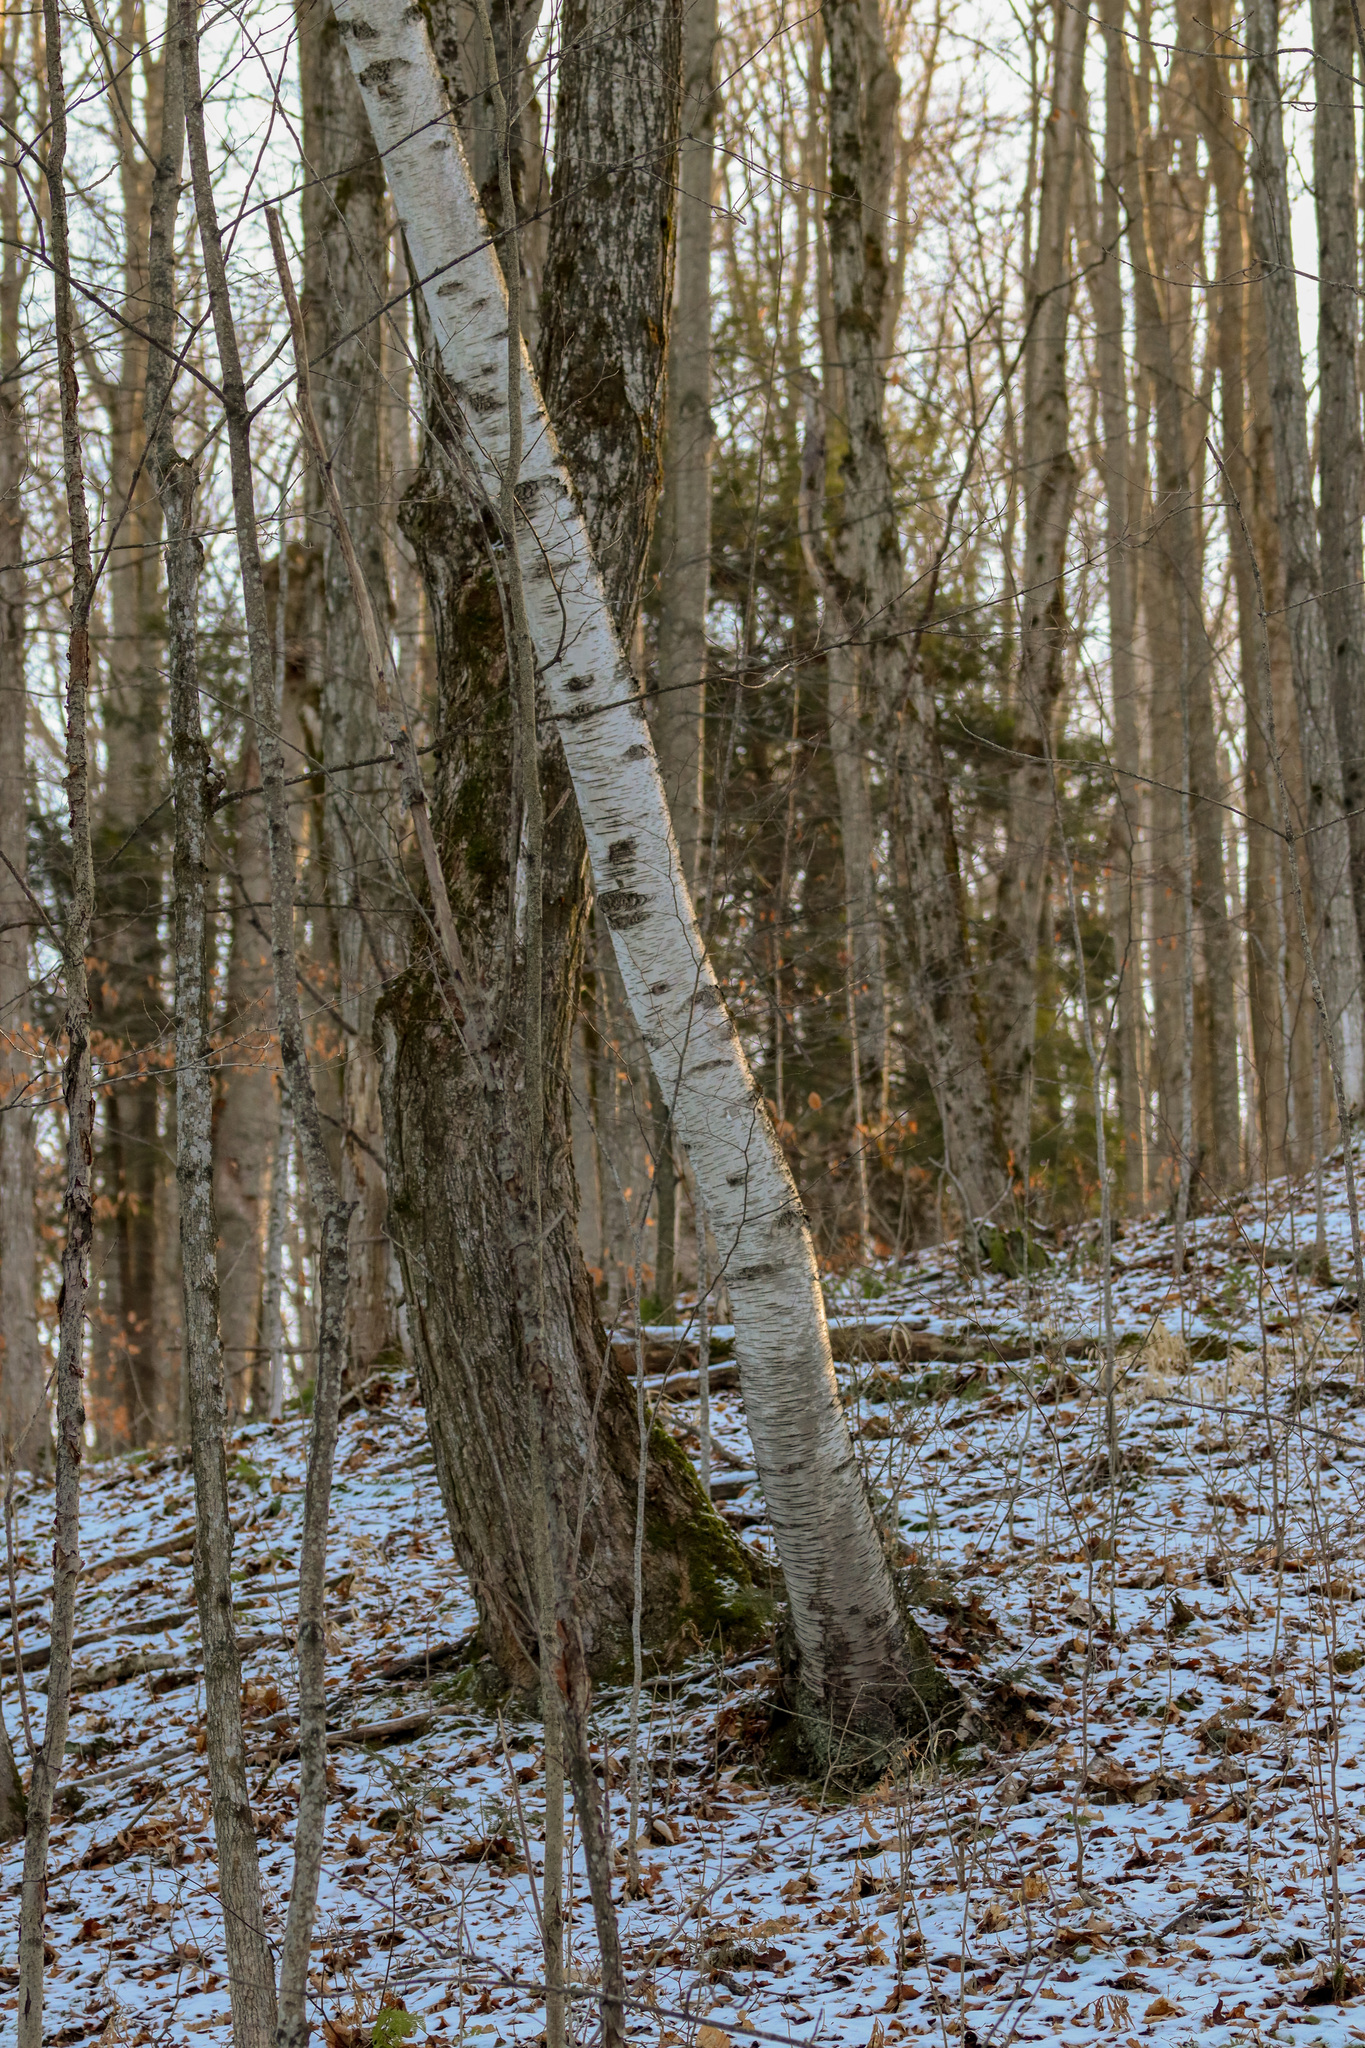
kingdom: Plantae
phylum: Tracheophyta
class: Magnoliopsida
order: Fagales
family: Betulaceae
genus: Betula
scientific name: Betula papyrifera
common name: Paper birch
